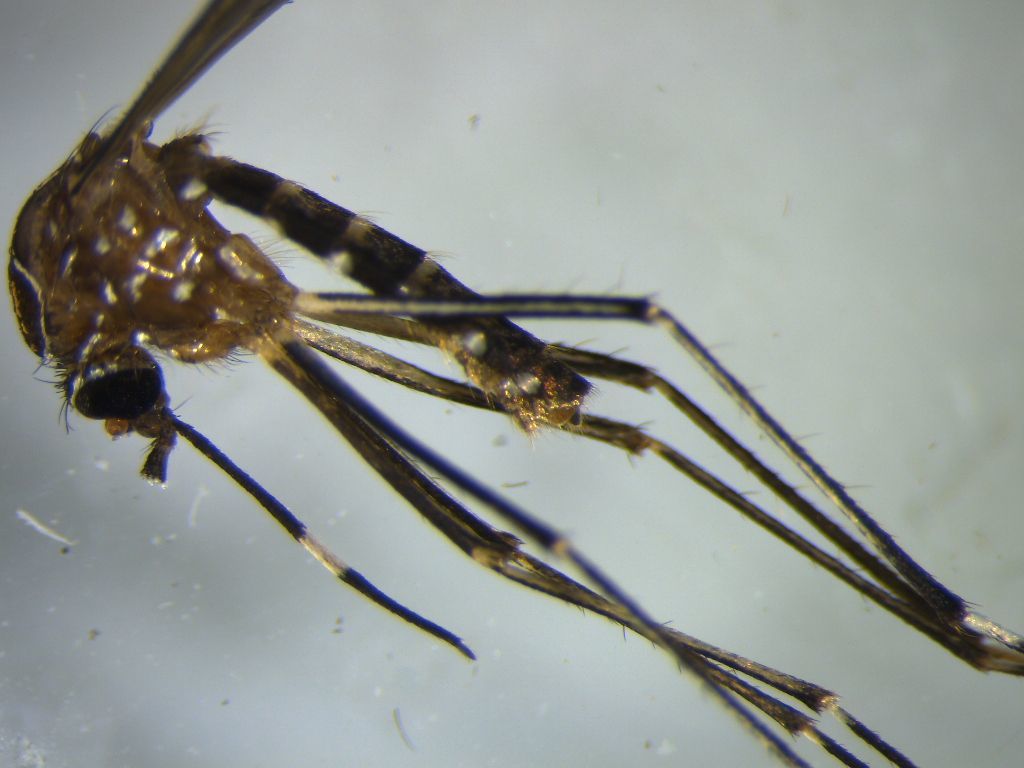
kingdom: Animalia
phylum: Arthropoda
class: Insecta
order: Diptera
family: Culicidae
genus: Aedes
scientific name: Aedes notoscriptus
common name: Australian backyard mosquito
